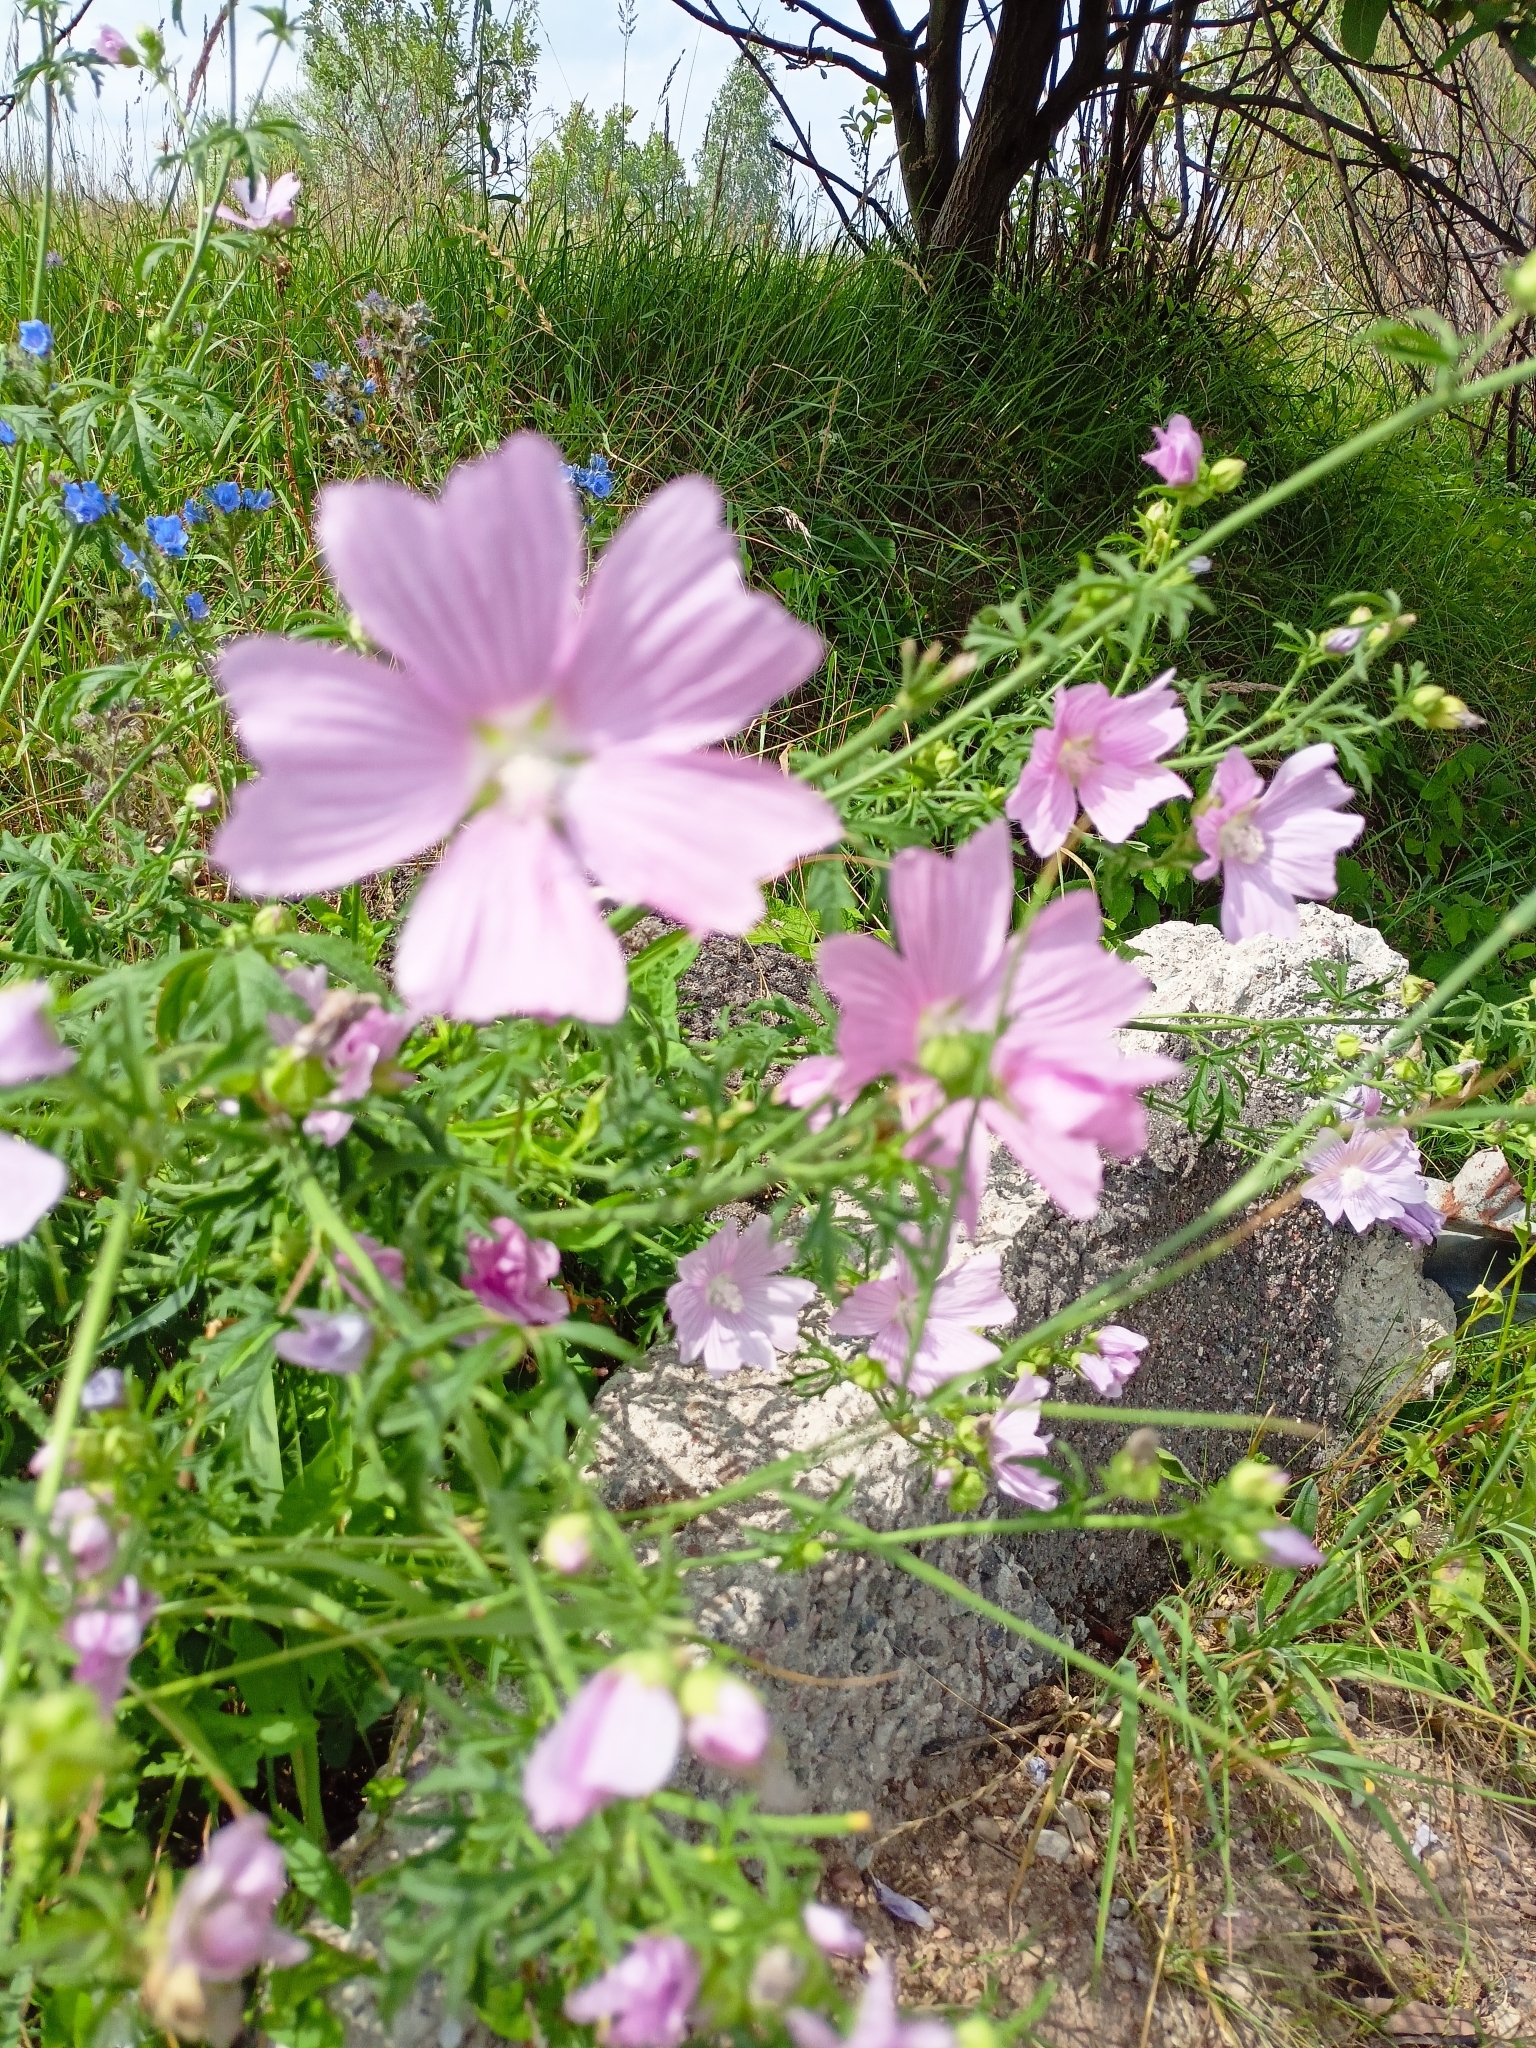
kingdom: Plantae
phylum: Tracheophyta
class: Magnoliopsida
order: Malvales
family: Malvaceae
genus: Malva
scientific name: Malva alcea
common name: Greater musk-mallow
